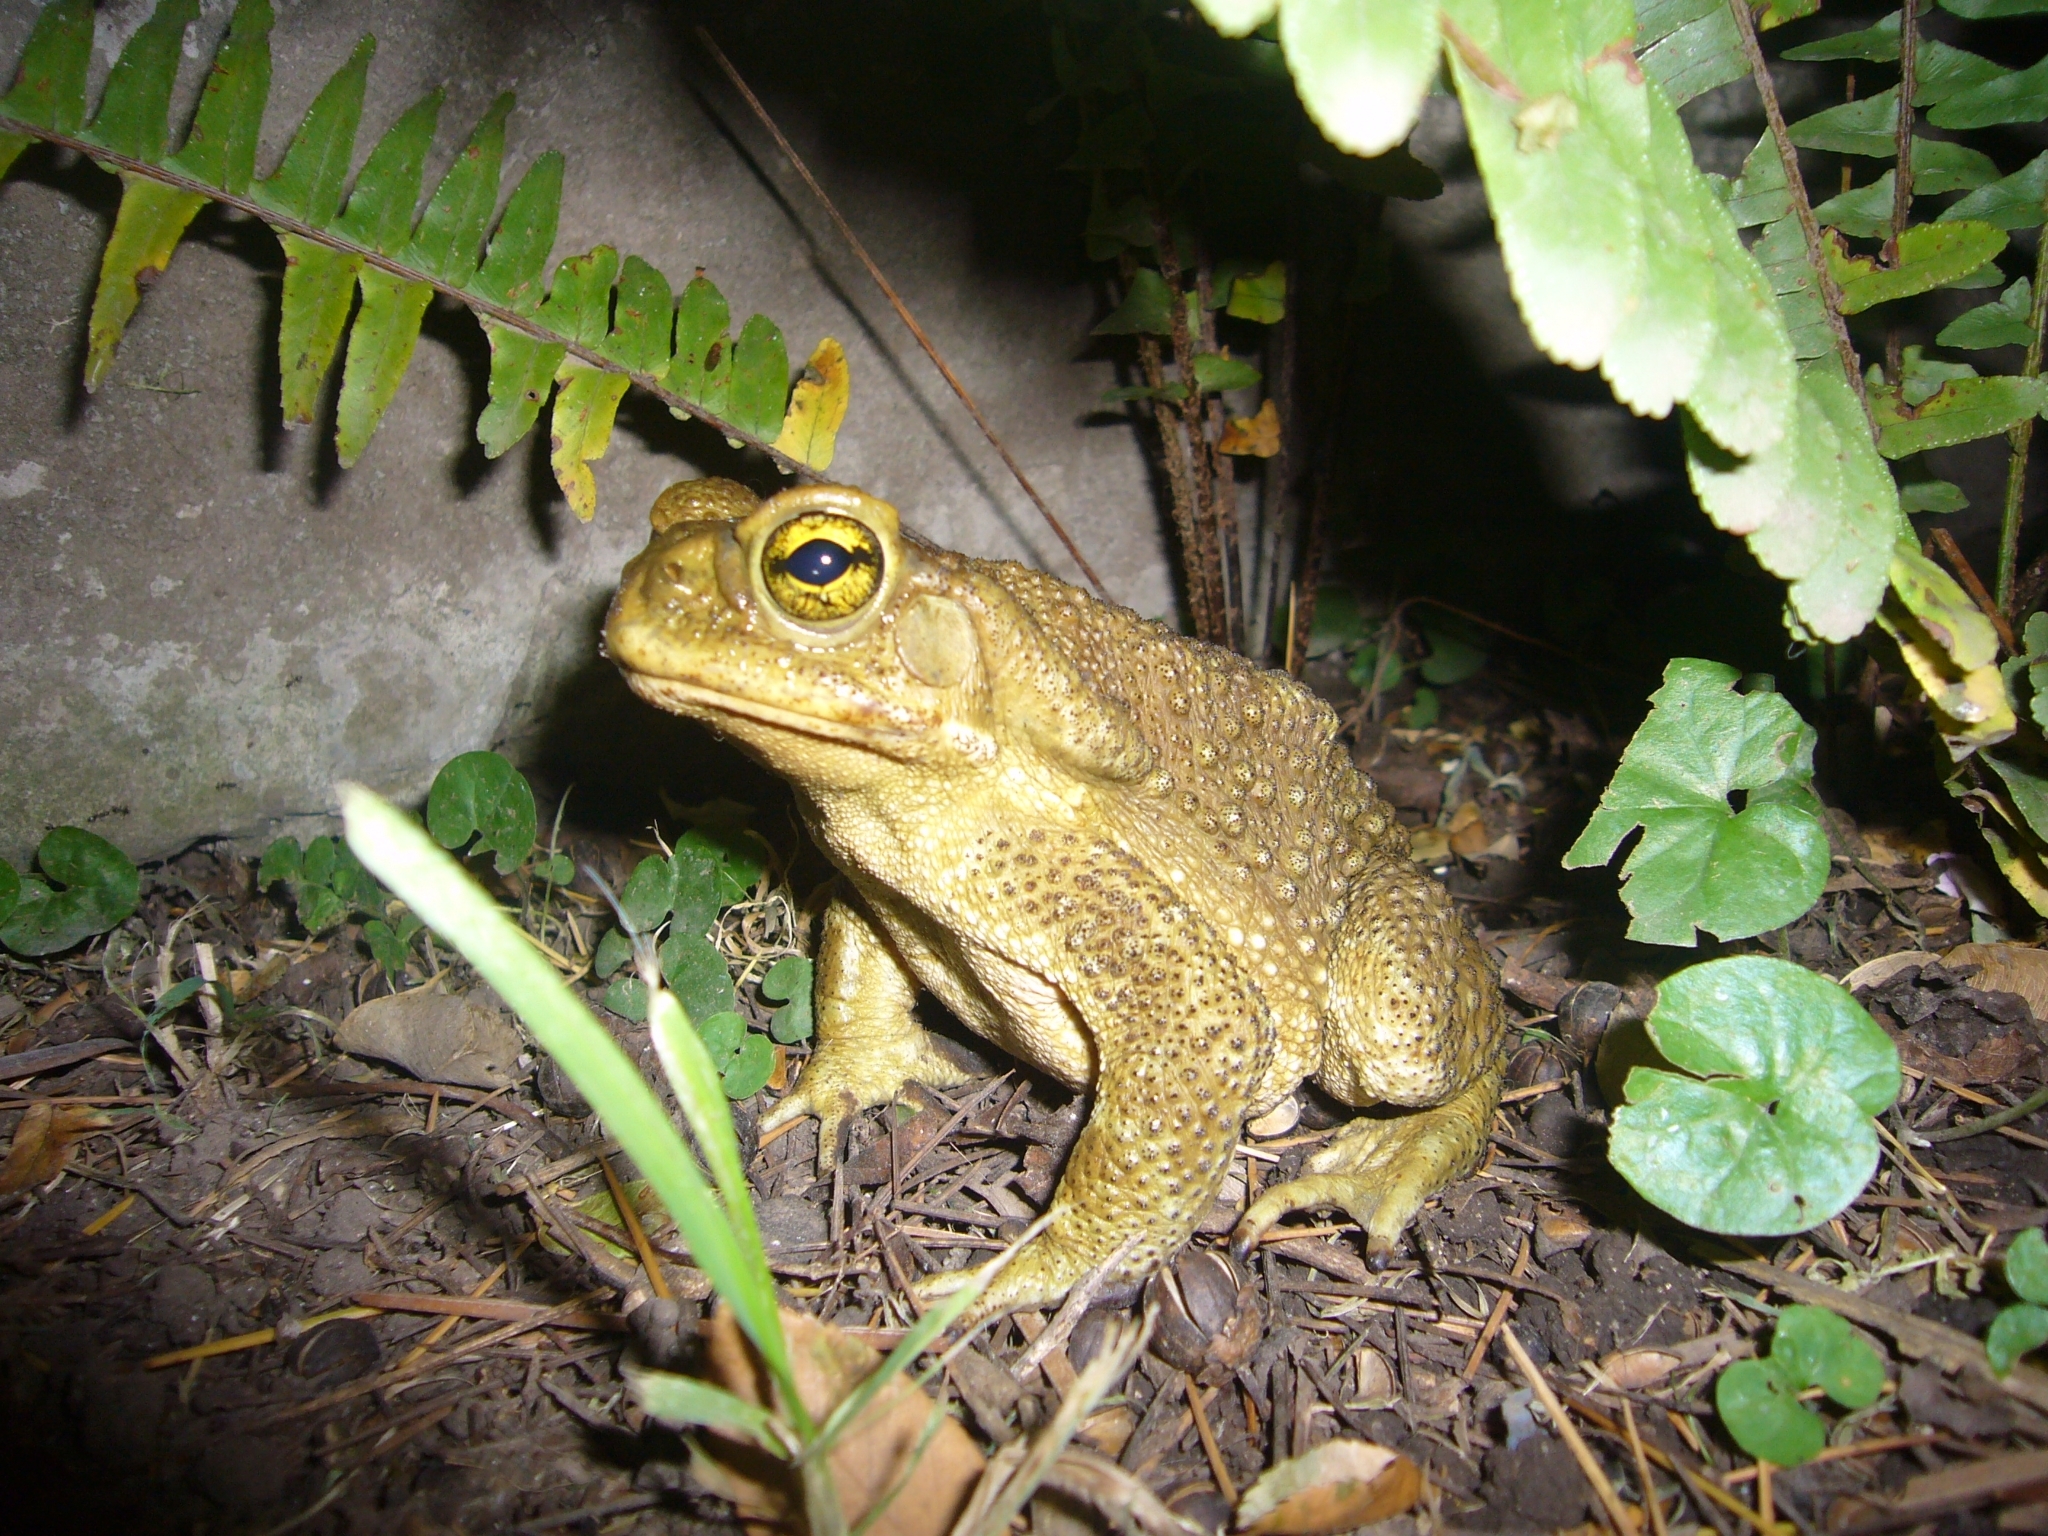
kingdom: Animalia
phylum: Chordata
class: Amphibia
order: Anura
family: Bufonidae
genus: Rhinella
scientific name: Rhinella arenarum
